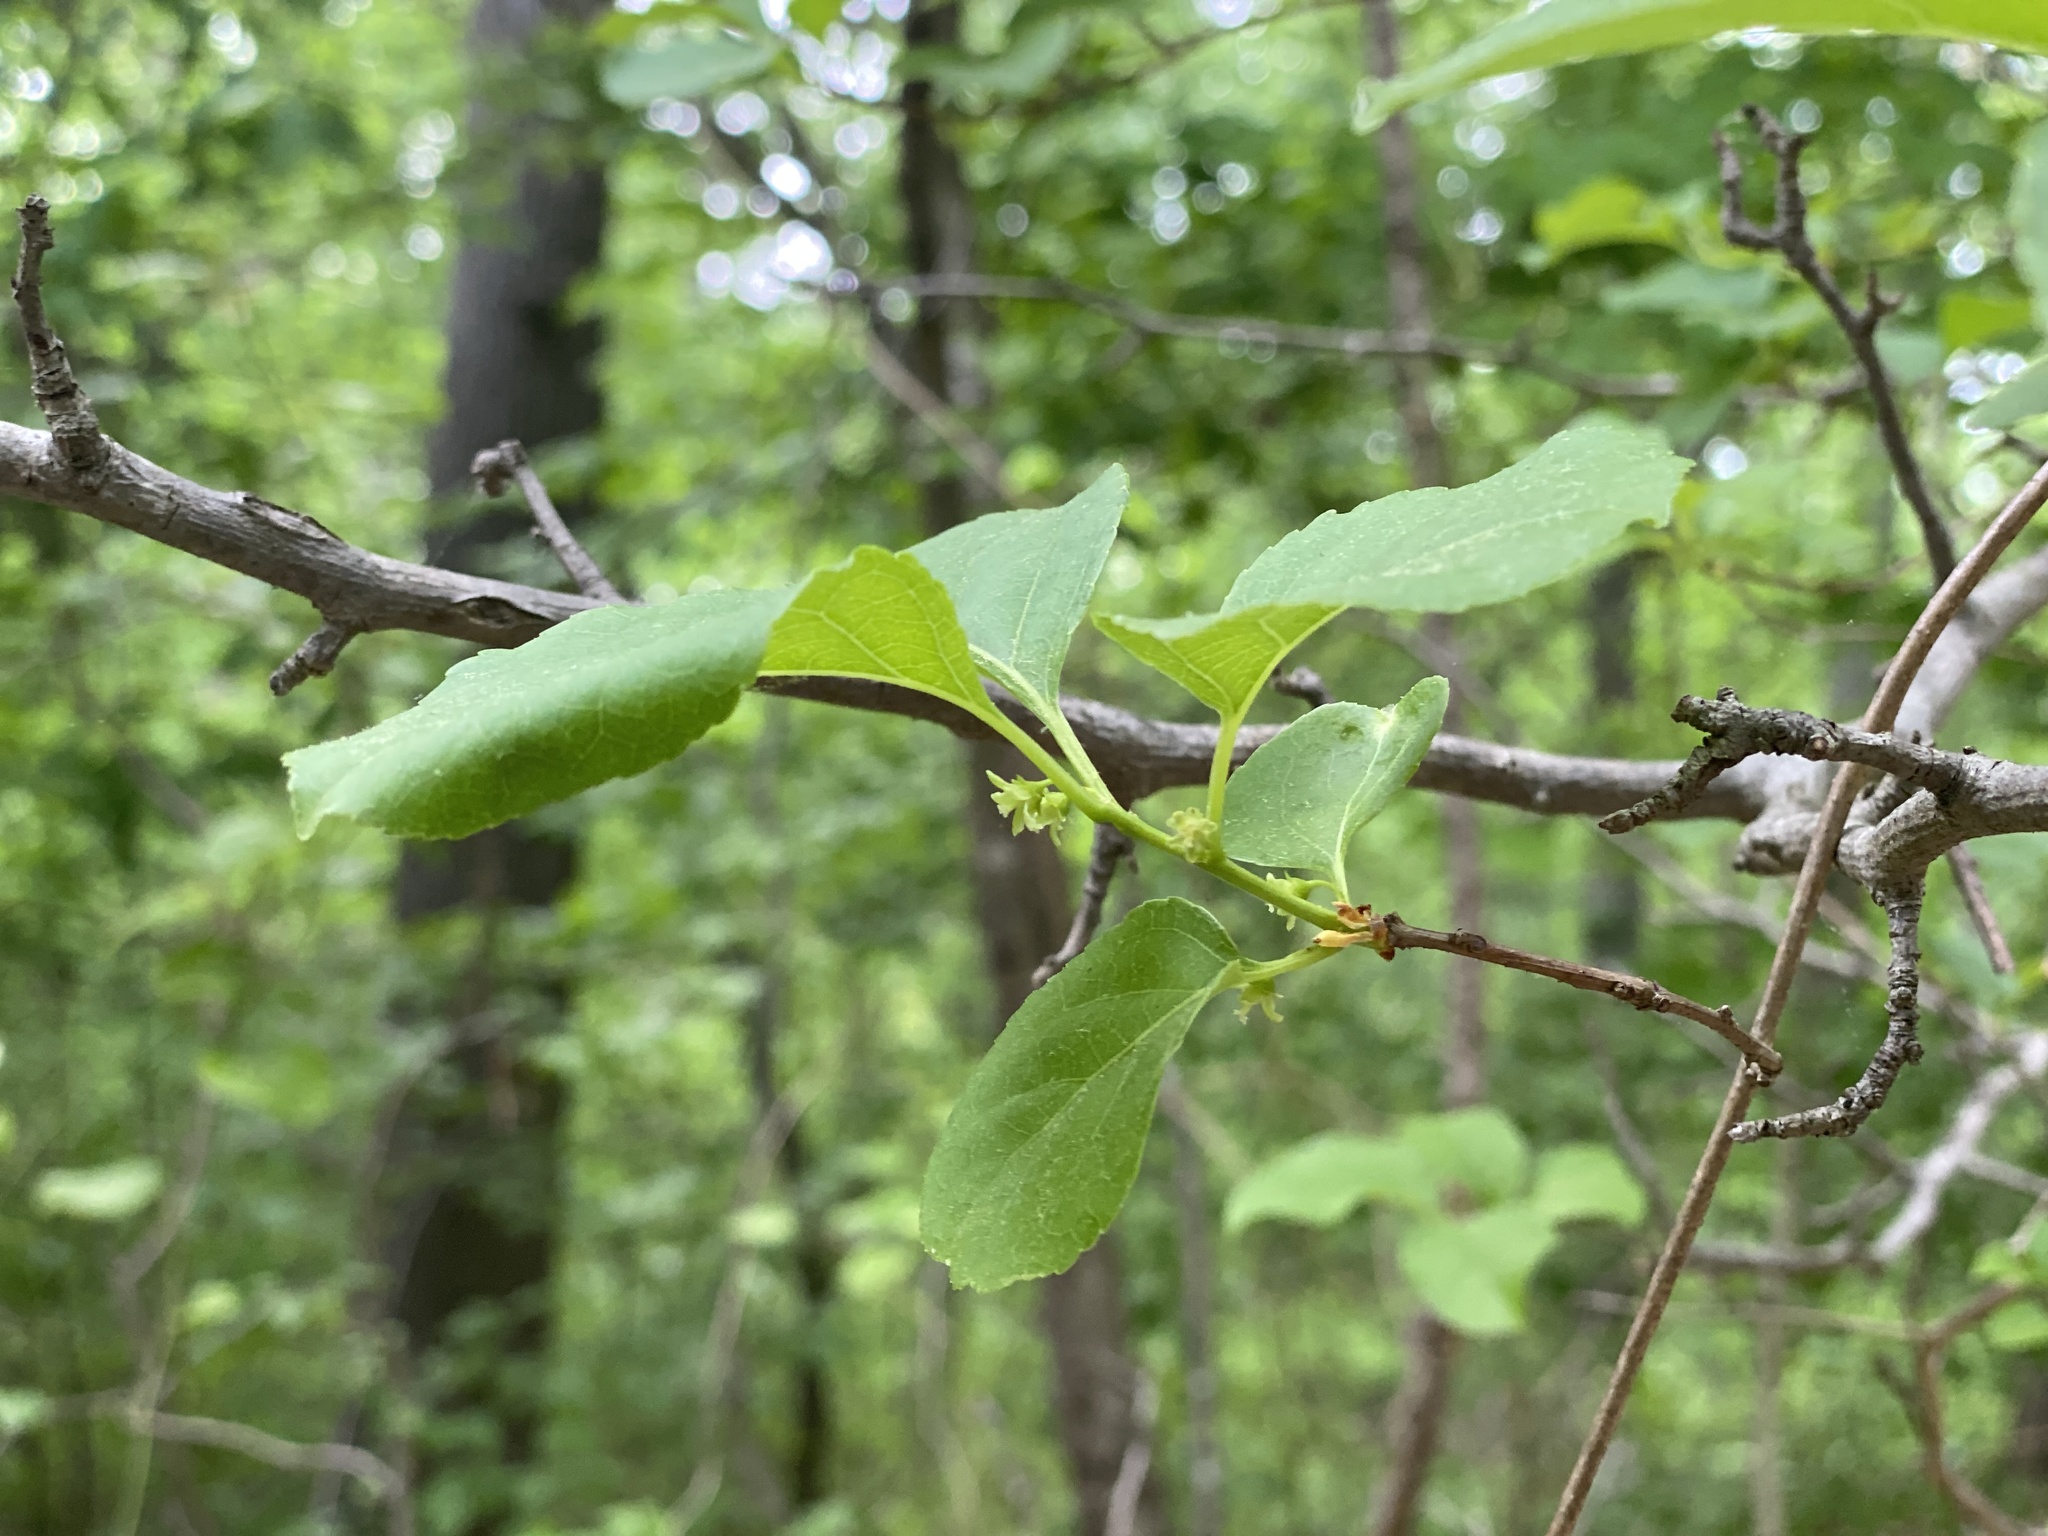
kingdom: Plantae
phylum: Tracheophyta
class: Magnoliopsida
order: Celastrales
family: Celastraceae
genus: Celastrus
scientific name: Celastrus orbiculatus
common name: Oriental bittersweet
